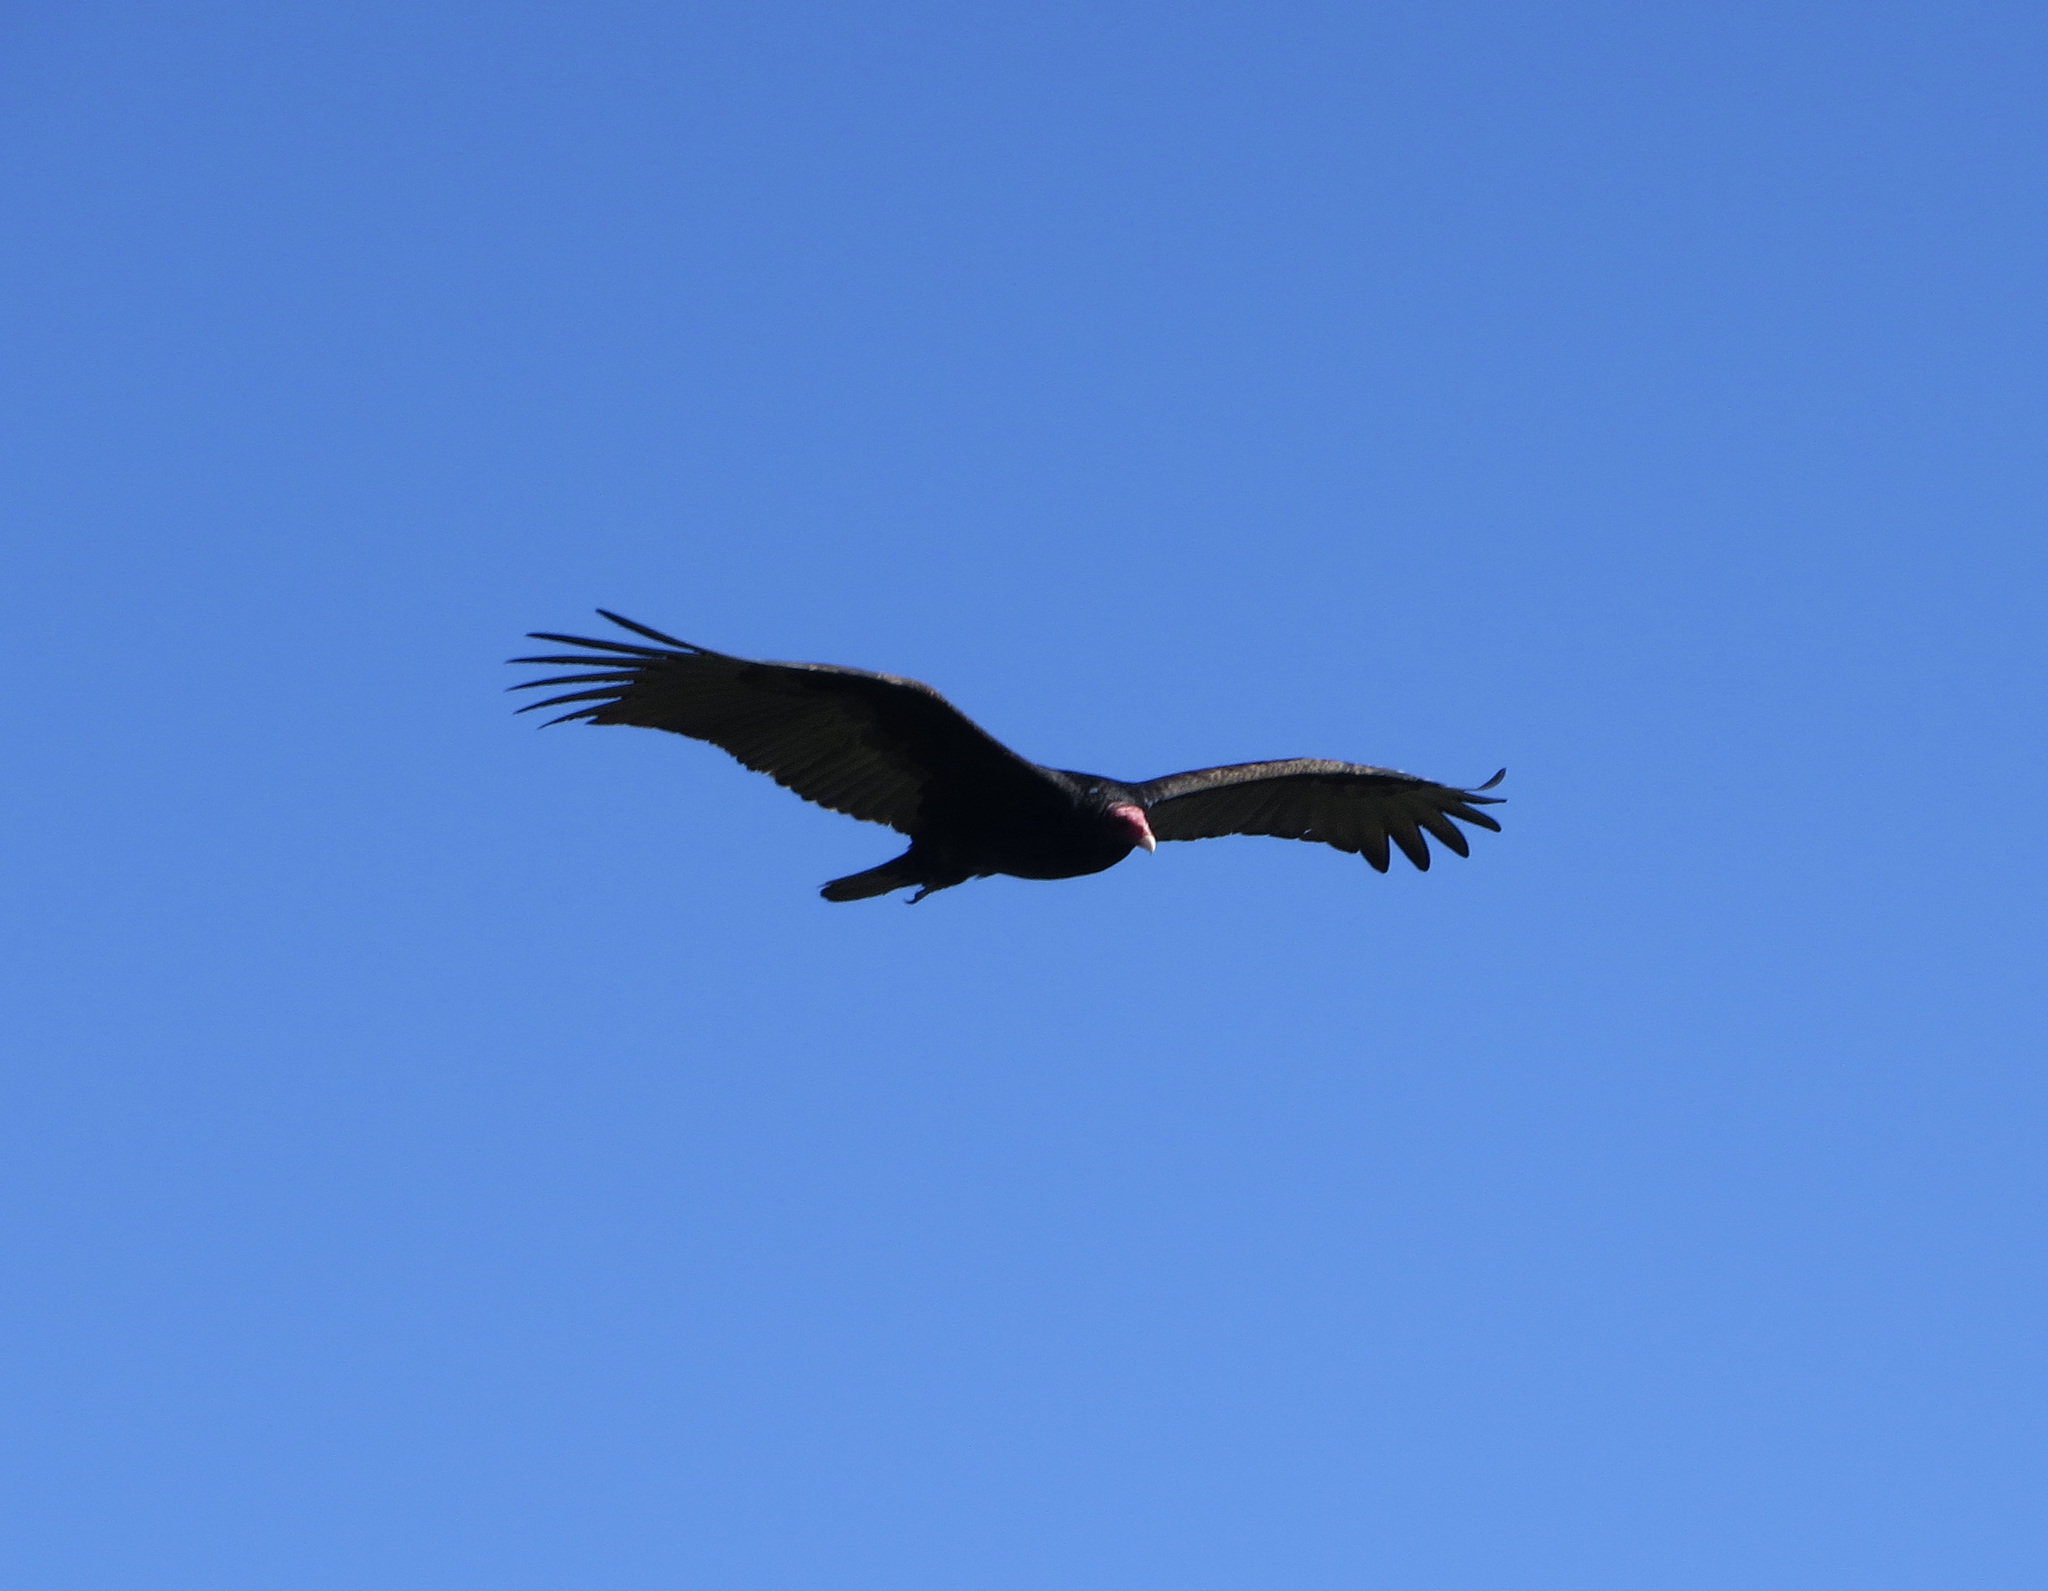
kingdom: Animalia
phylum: Chordata
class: Aves
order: Accipitriformes
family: Cathartidae
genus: Cathartes
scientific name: Cathartes aura
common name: Turkey vulture
